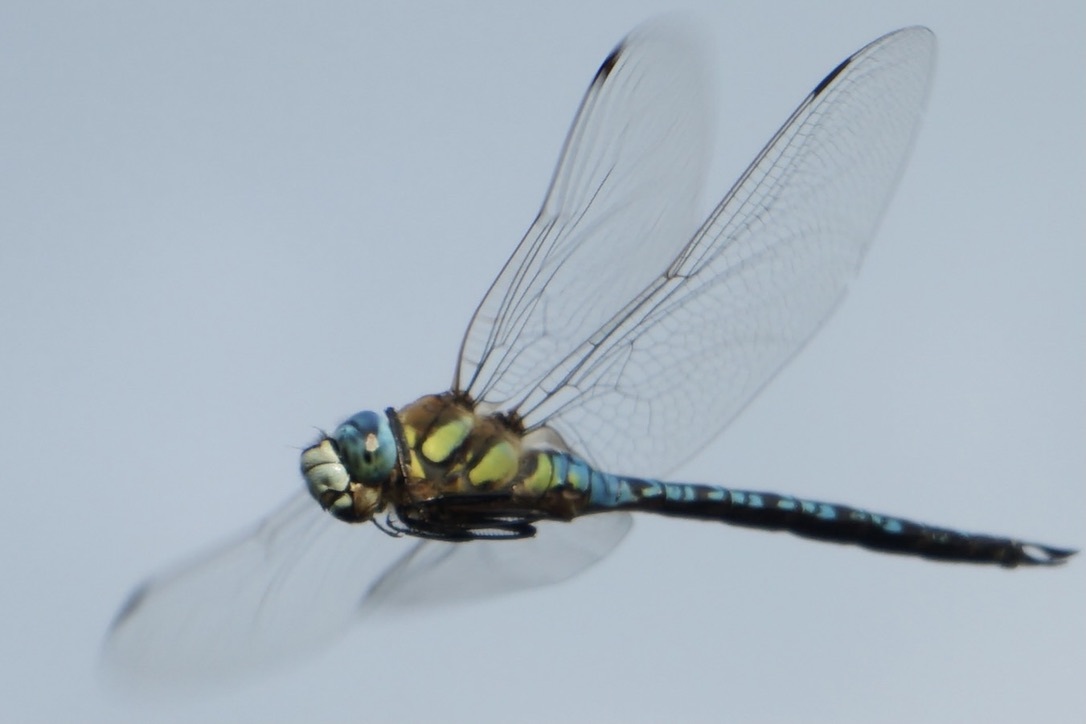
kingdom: Animalia
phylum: Arthropoda
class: Insecta
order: Odonata
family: Aeshnidae
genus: Aeshna
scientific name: Aeshna soneharai
